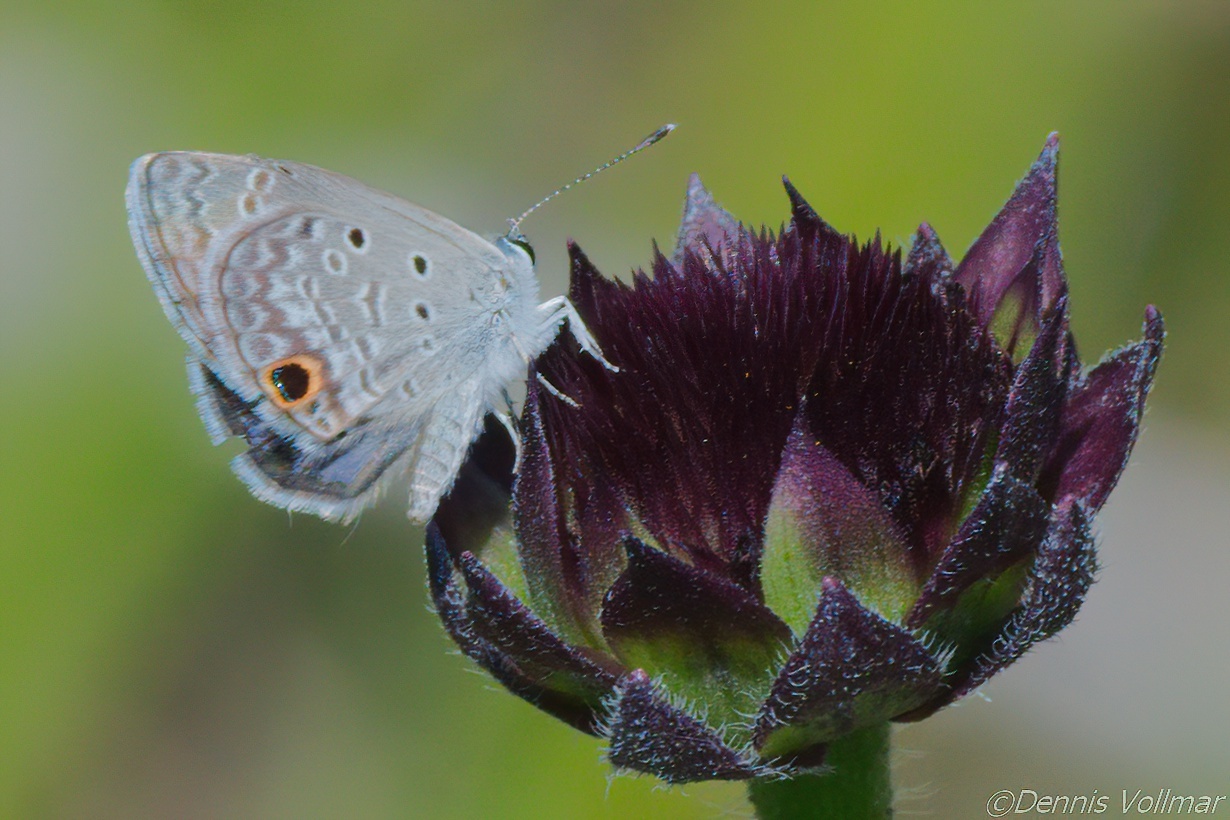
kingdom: Animalia
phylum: Arthropoda
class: Insecta
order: Lepidoptera
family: Lycaenidae
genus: Hemiargus
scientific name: Hemiargus ceraunus
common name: Ceraunus blue
